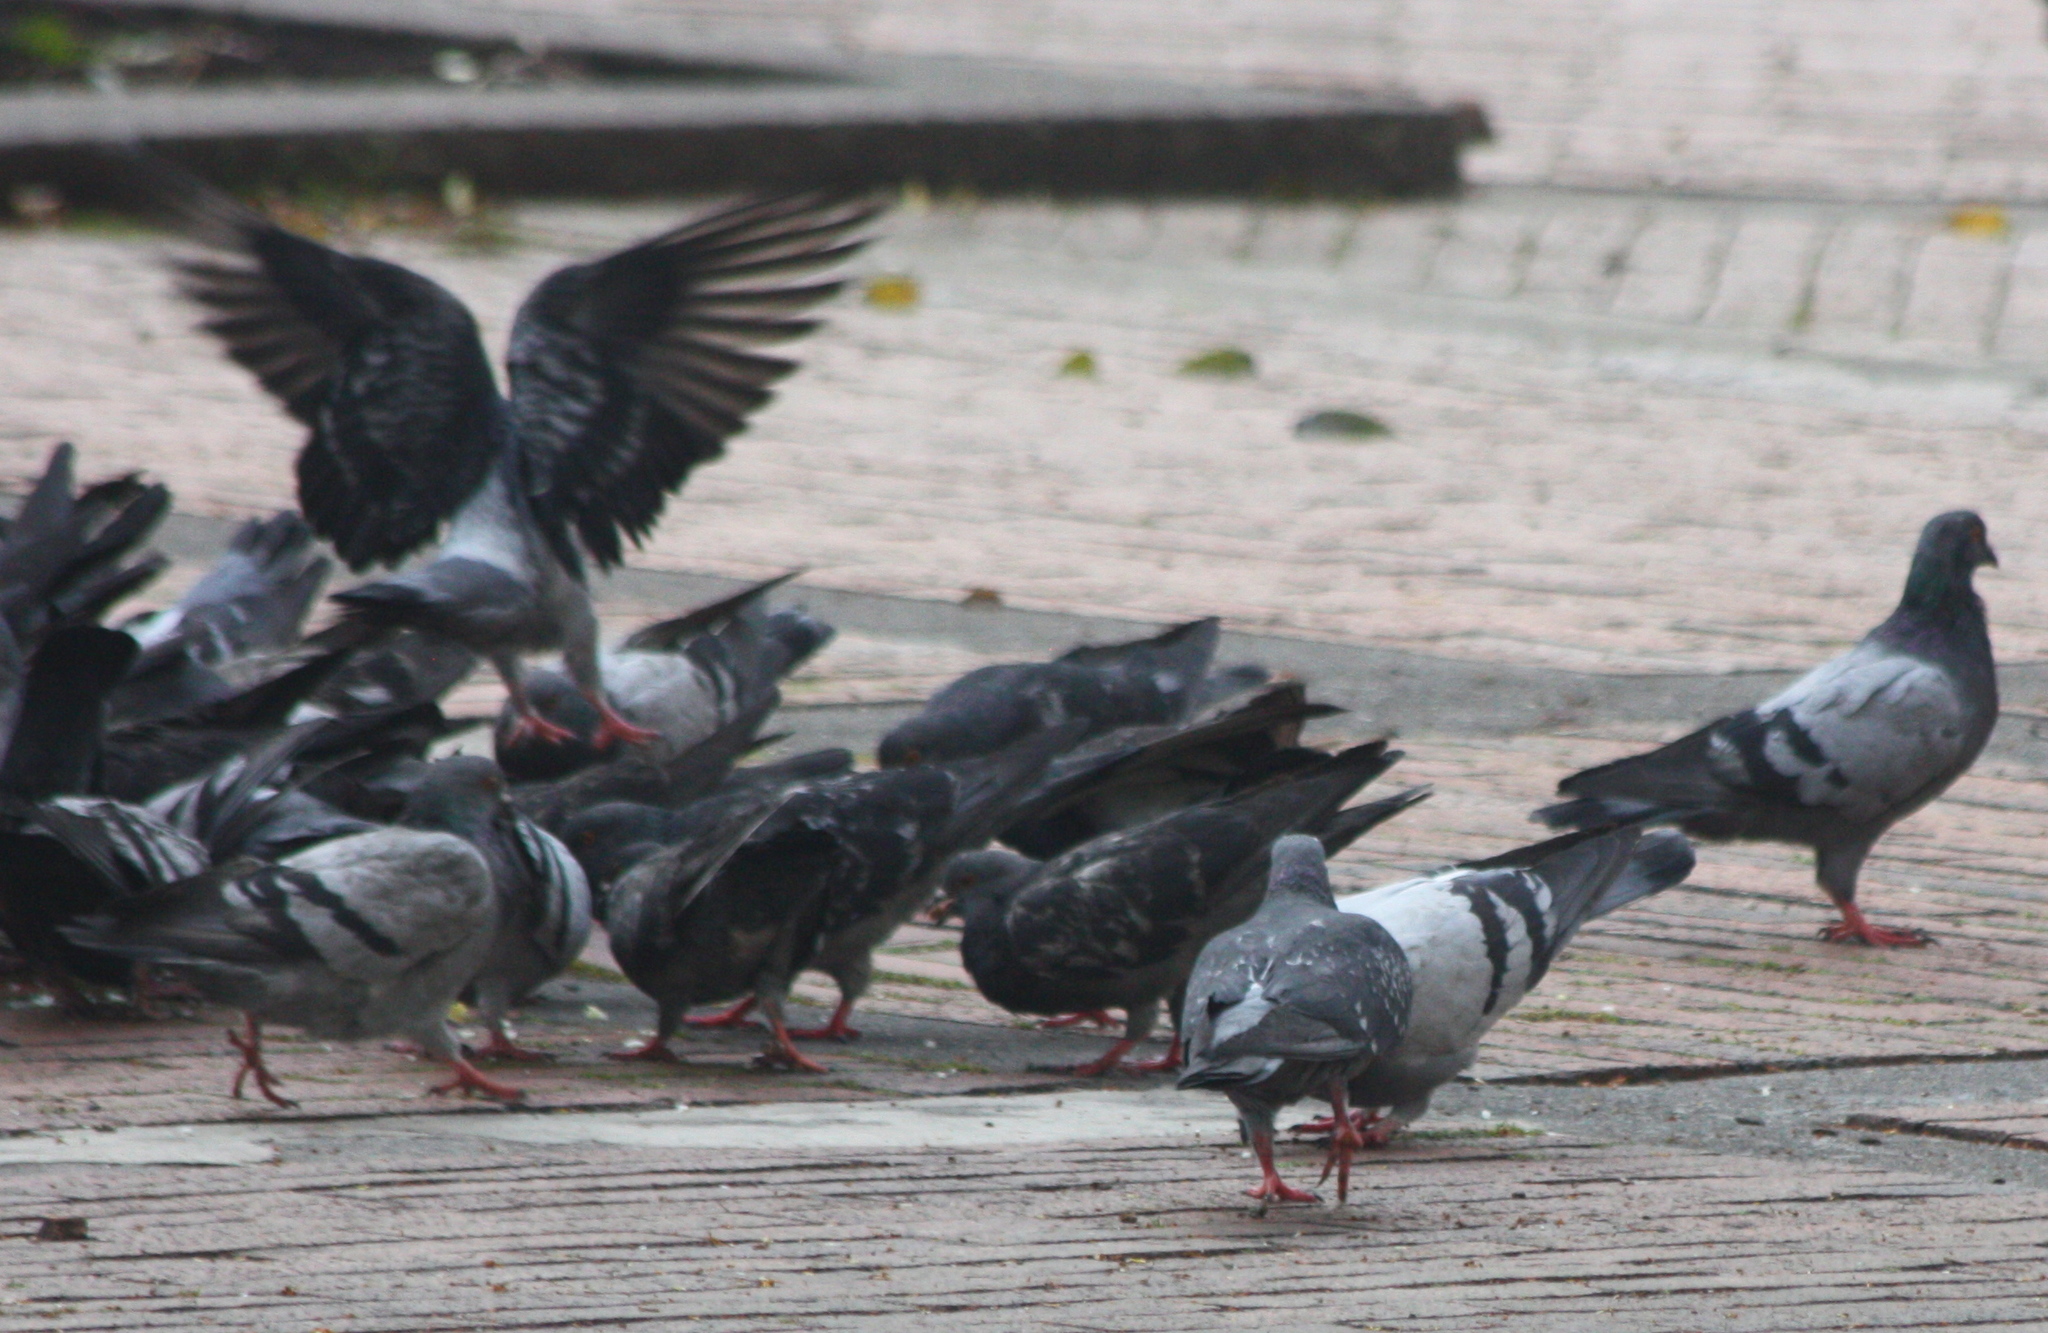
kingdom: Animalia
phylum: Chordata
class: Aves
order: Columbiformes
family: Columbidae
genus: Columba
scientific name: Columba livia
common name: Rock pigeon
